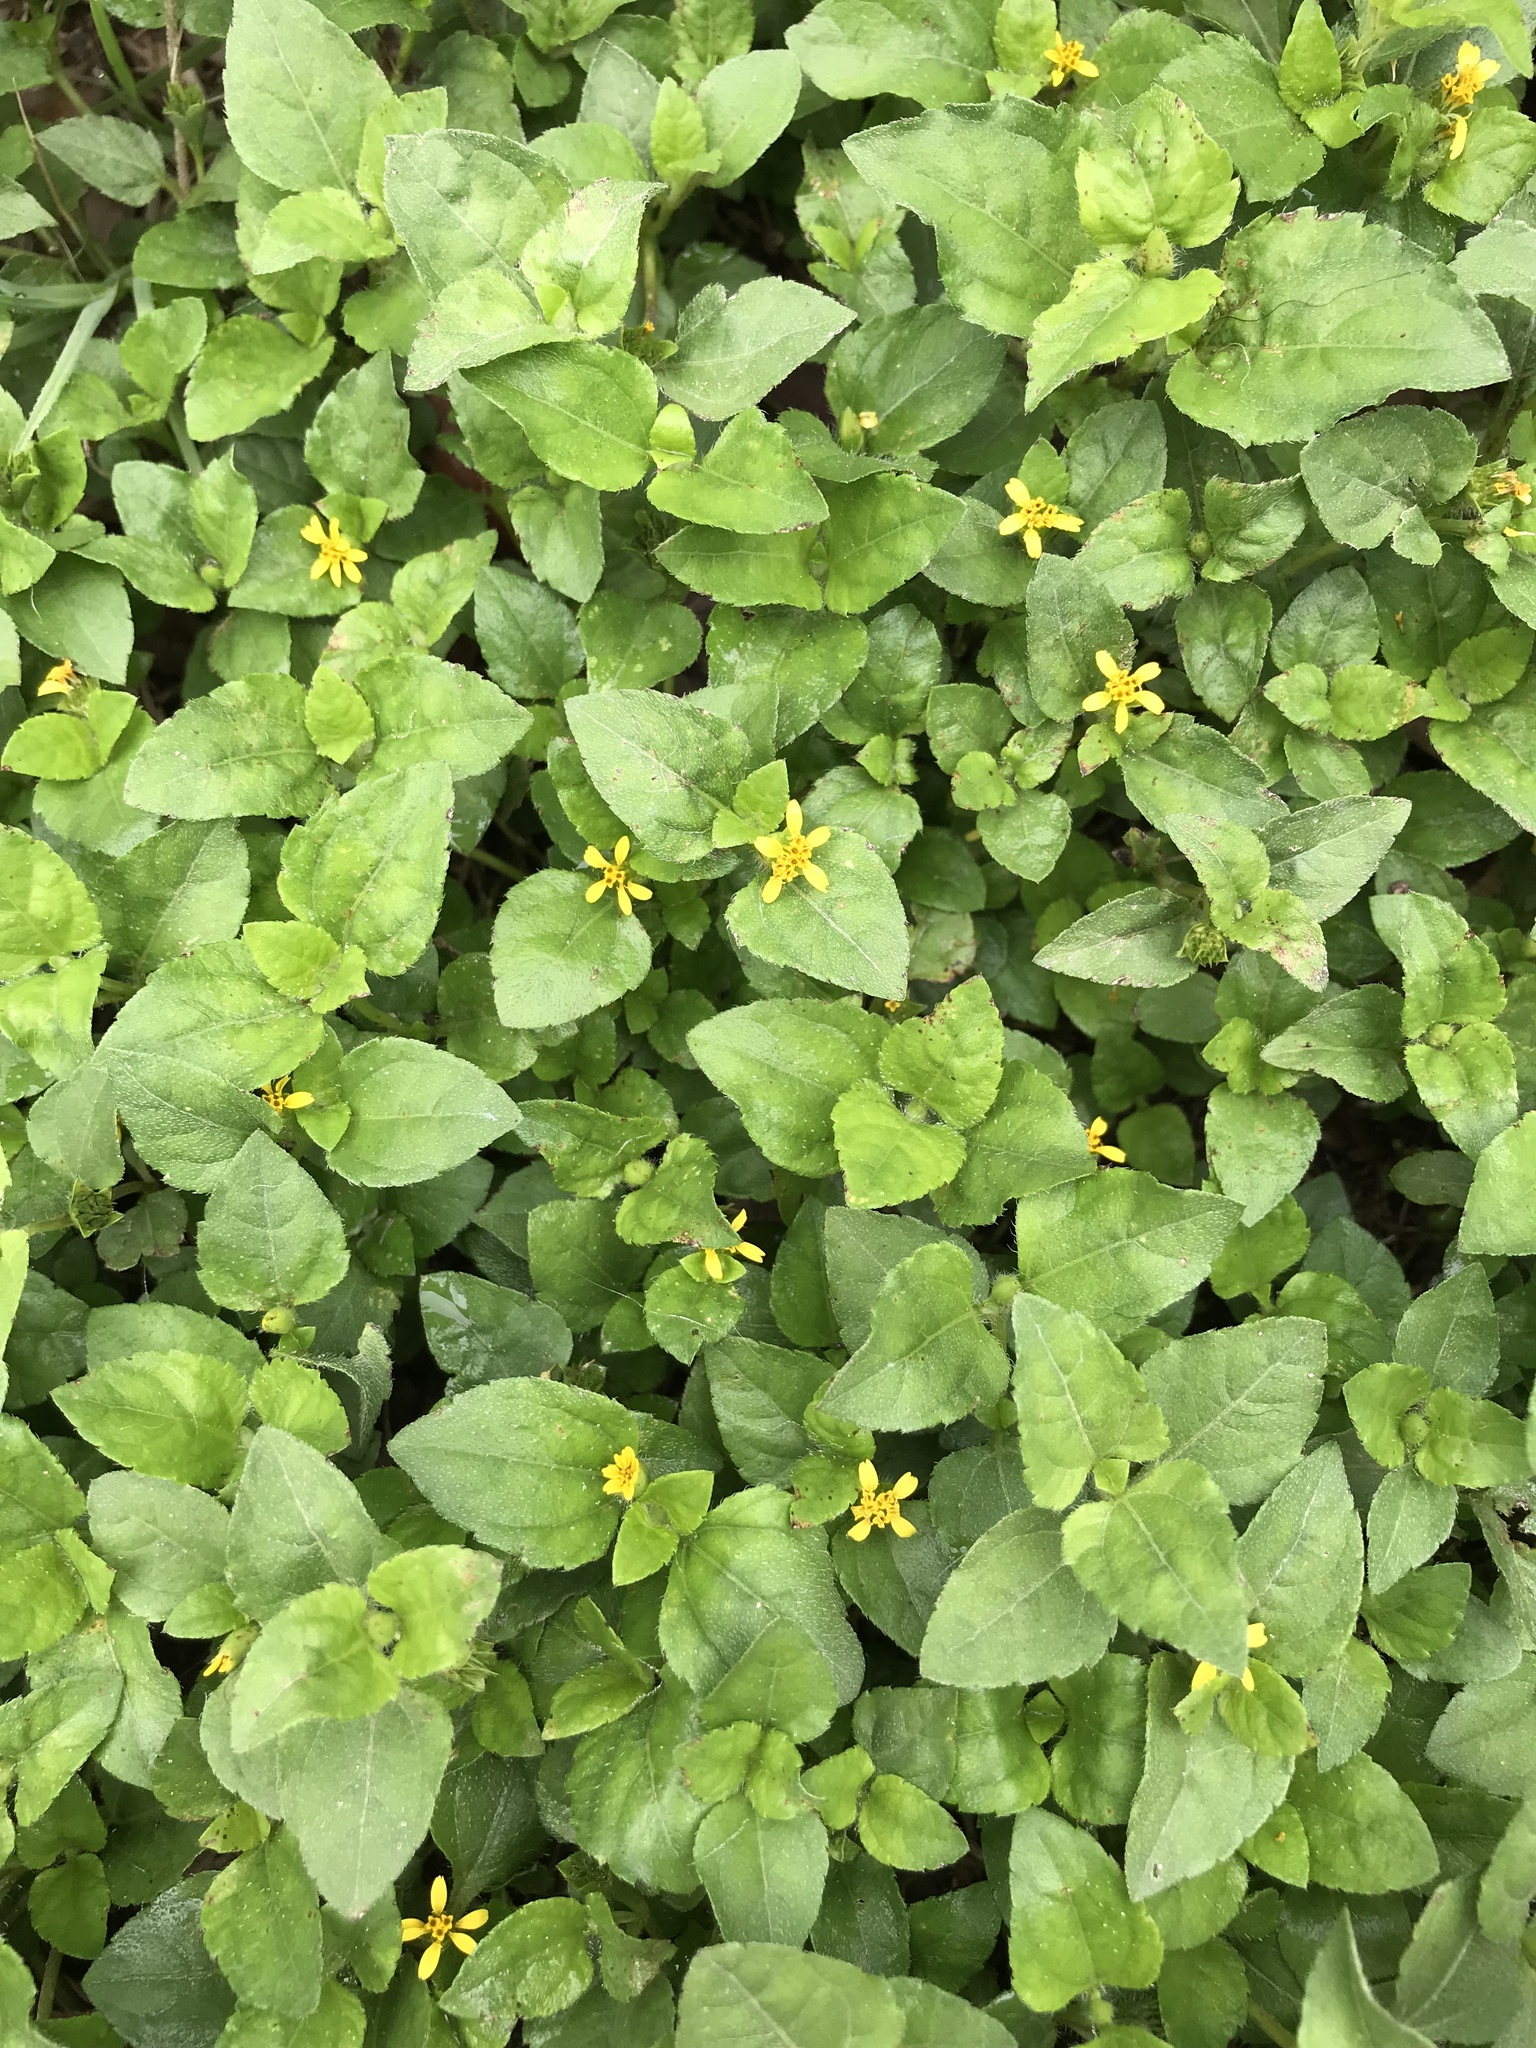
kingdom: Plantae
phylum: Tracheophyta
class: Magnoliopsida
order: Asterales
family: Asteraceae
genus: Calyptocarpus
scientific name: Calyptocarpus vialis
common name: Straggler daisy
